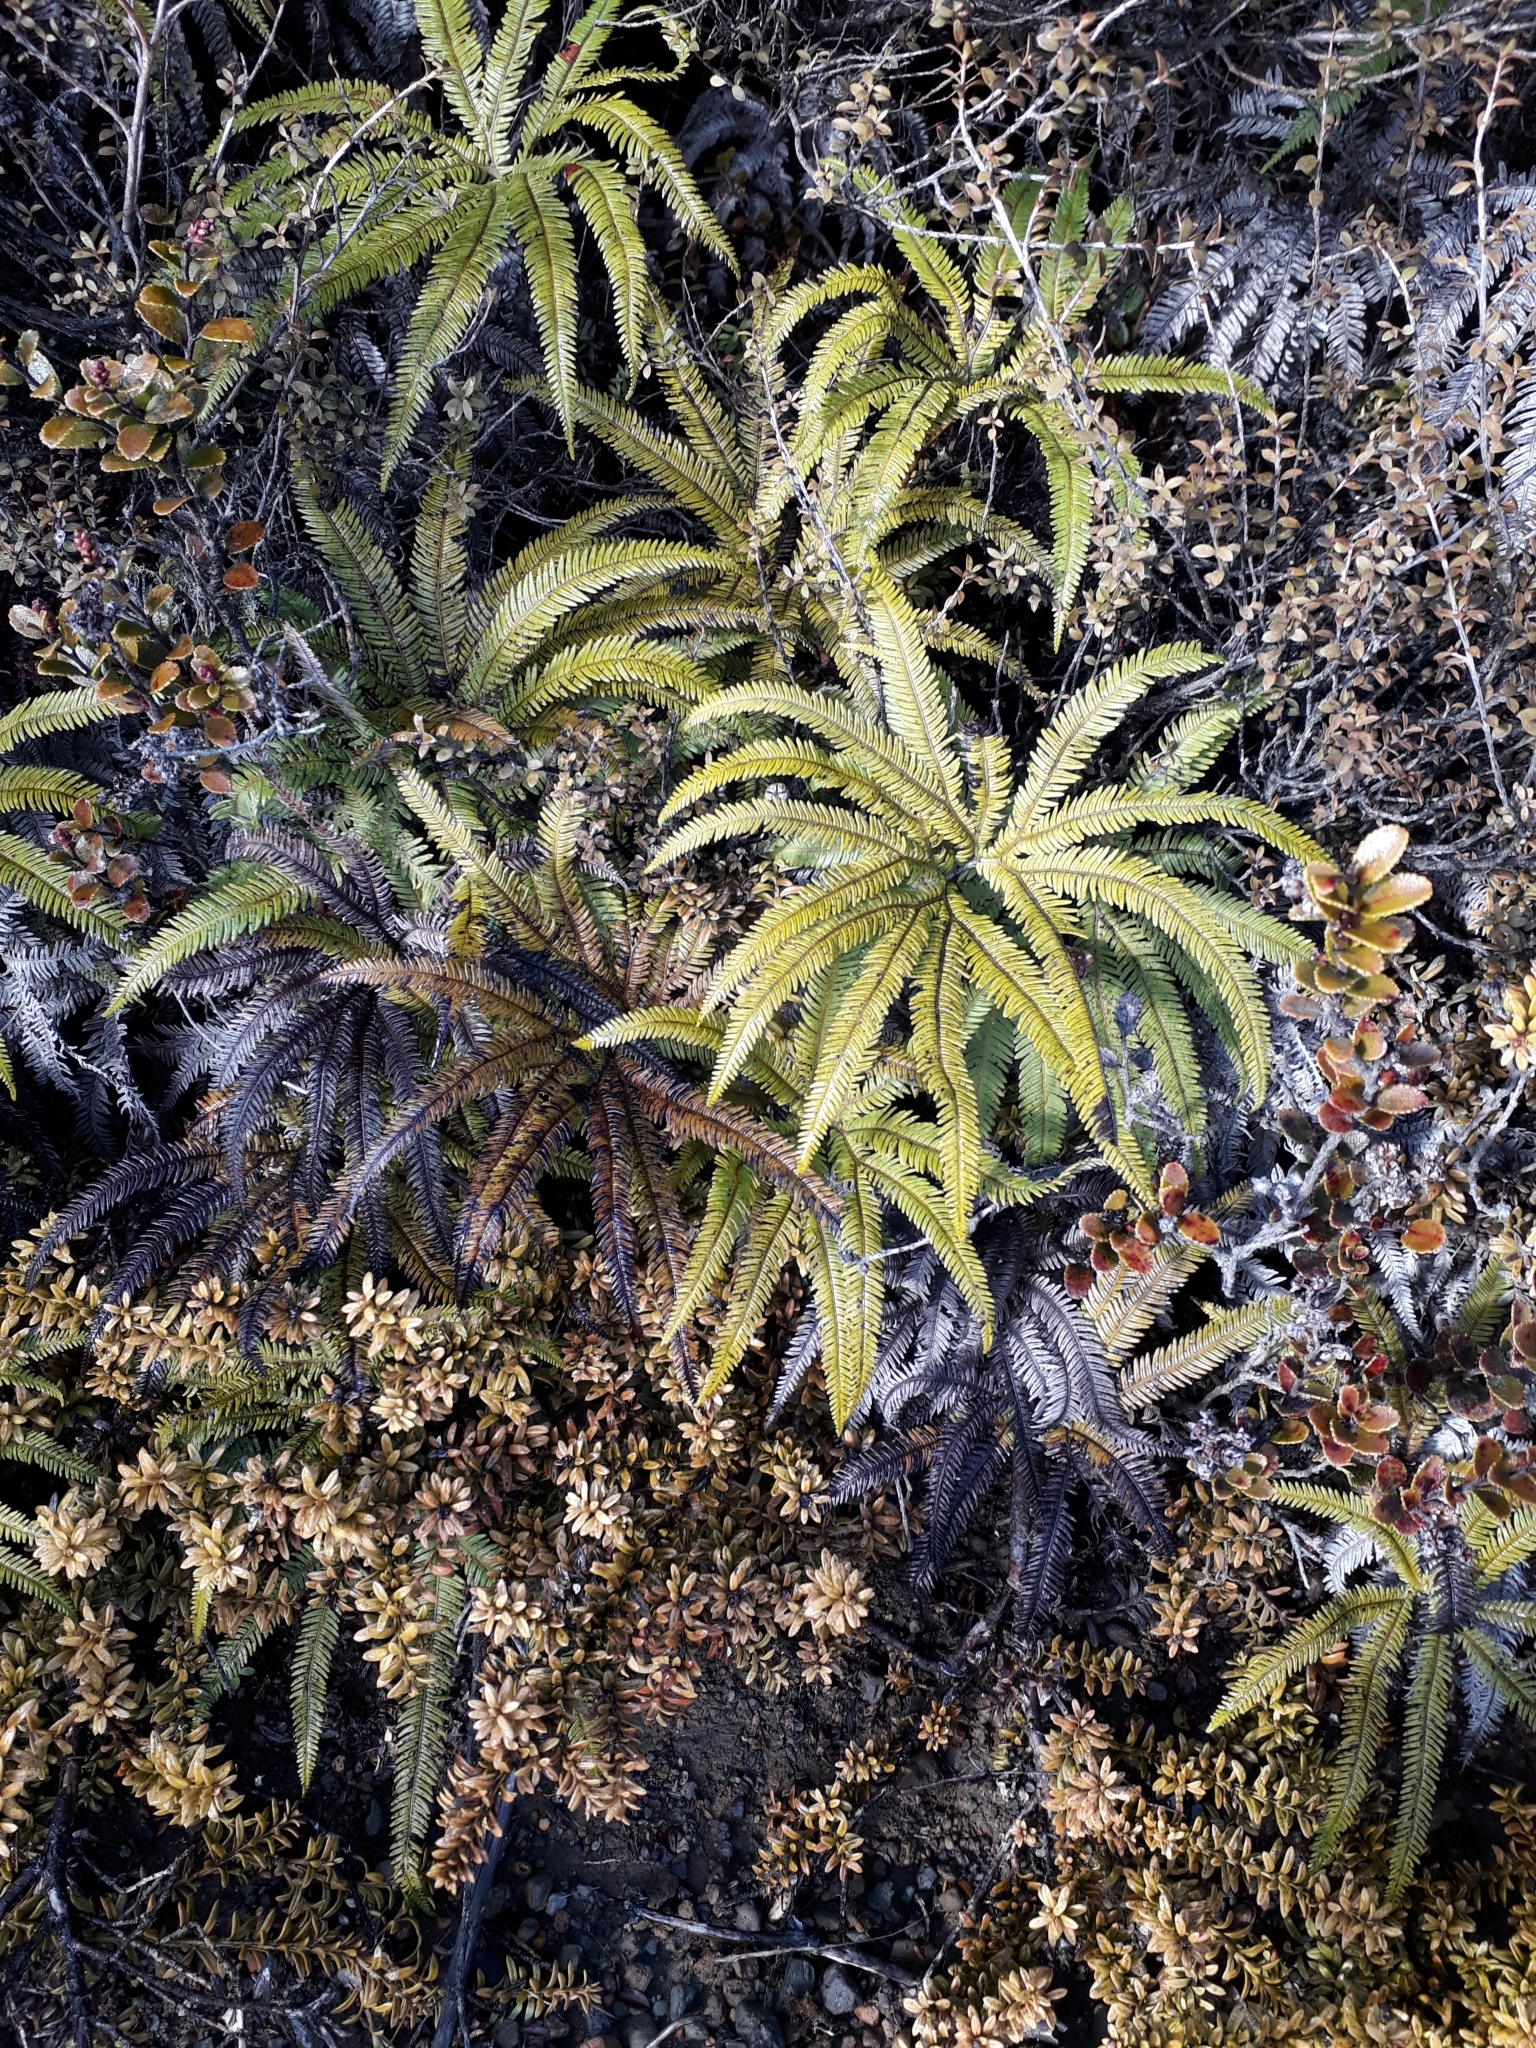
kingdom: Plantae
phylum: Tracheophyta
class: Polypodiopsida
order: Gleicheniales
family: Gleicheniaceae
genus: Sticherus
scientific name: Sticherus cunninghamii
